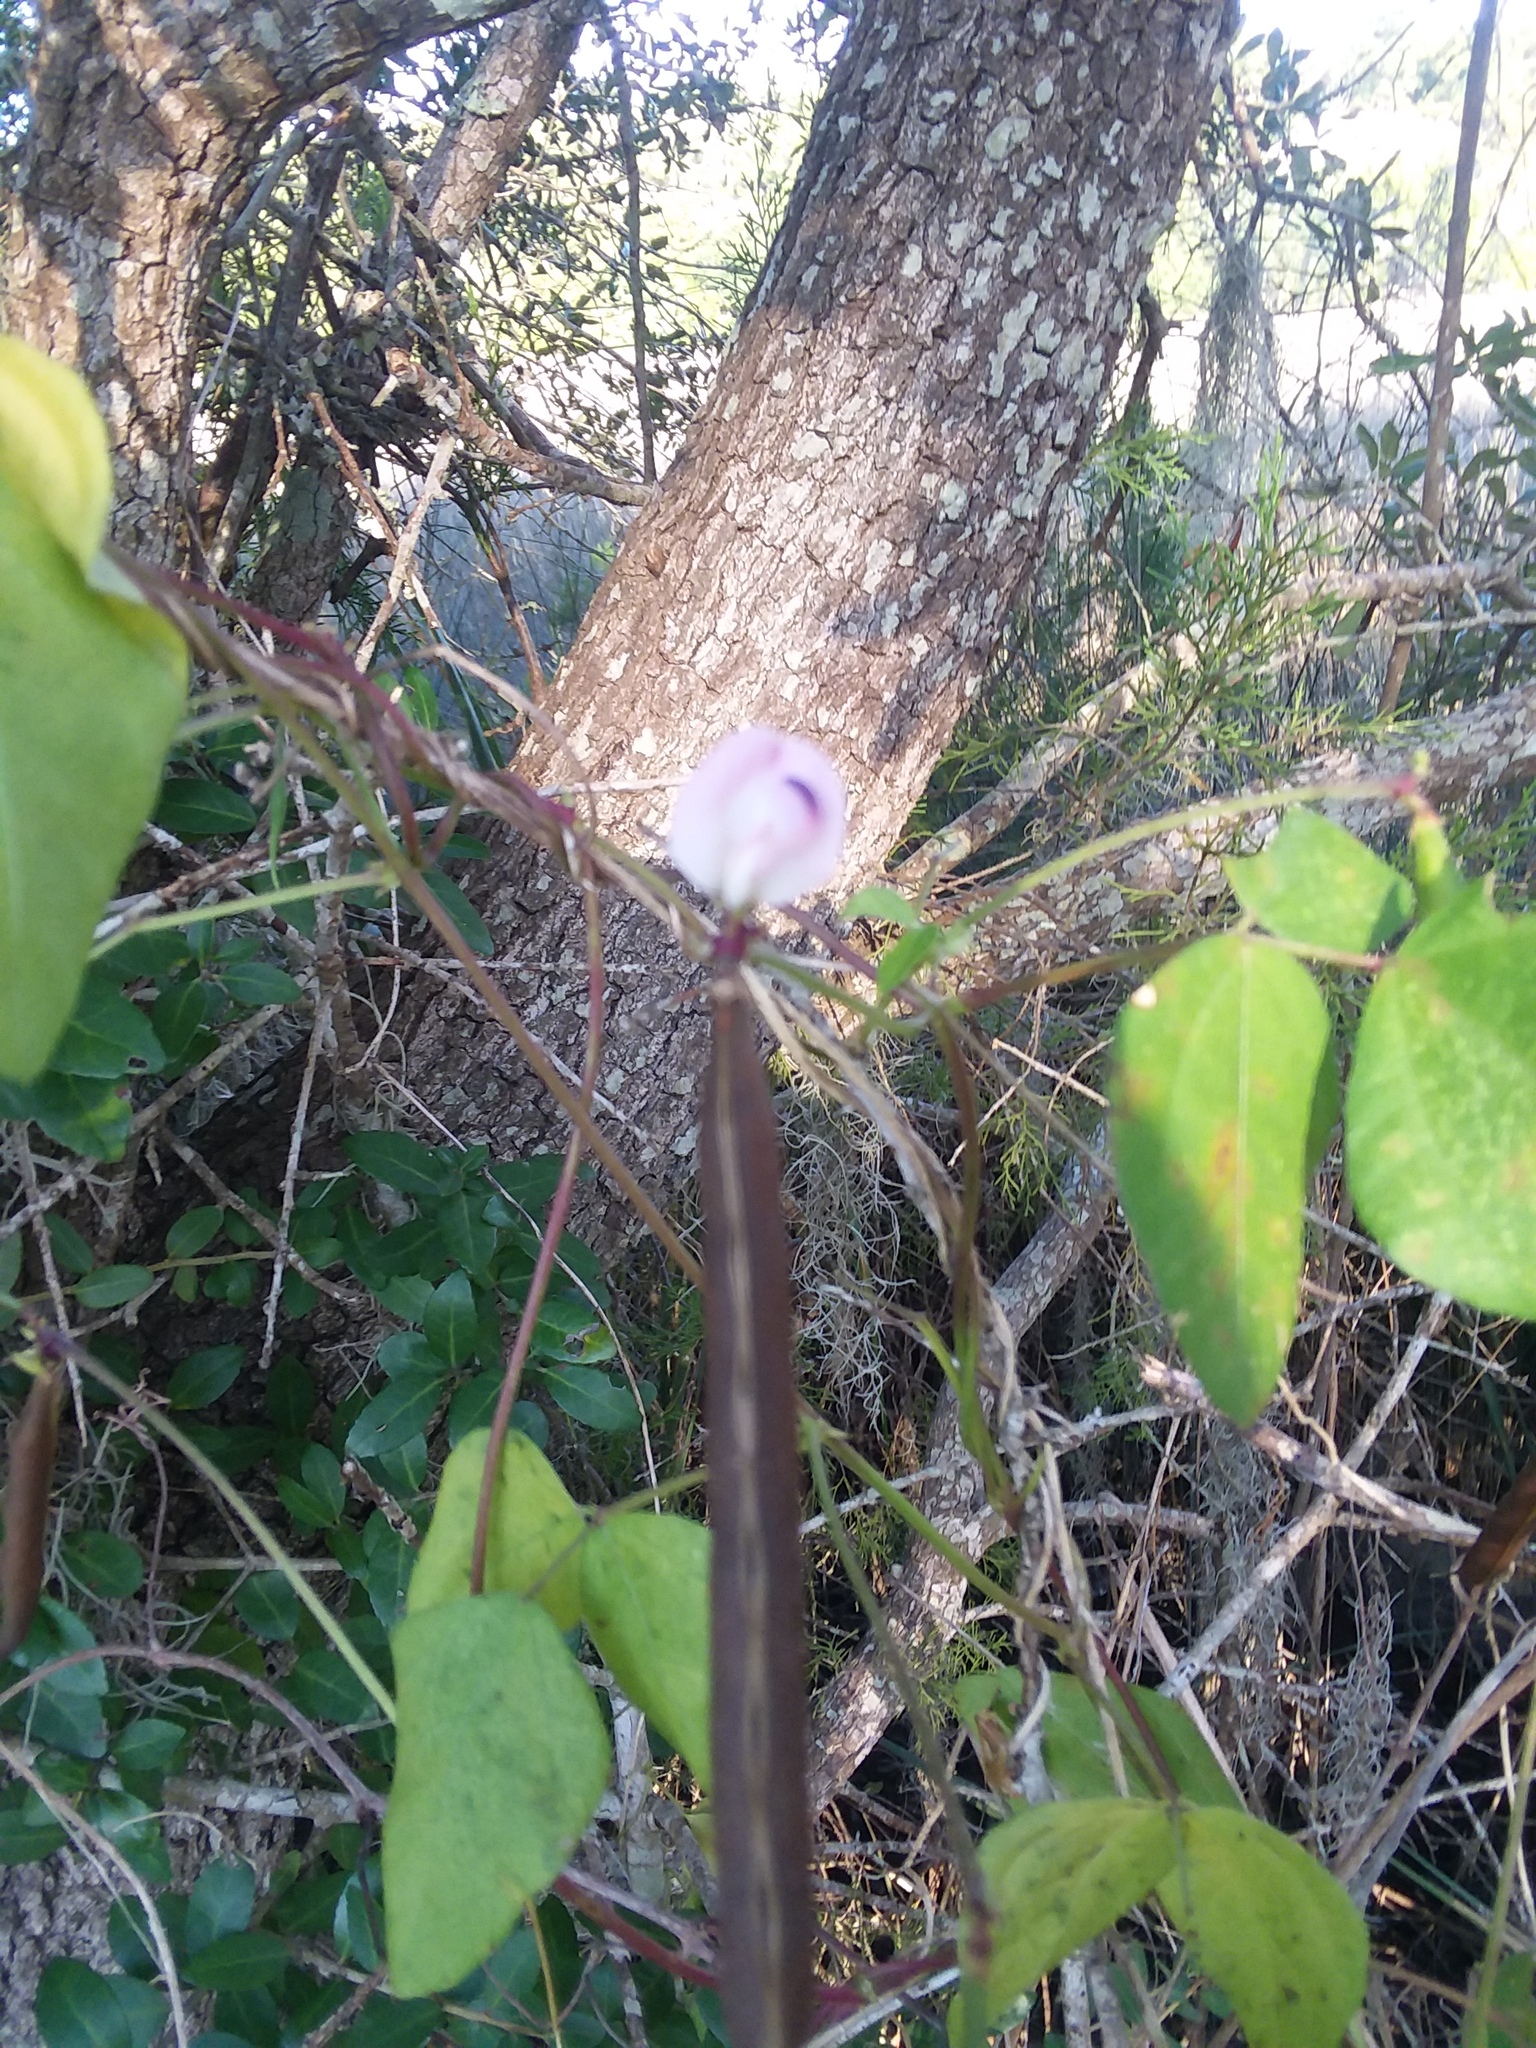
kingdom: Plantae
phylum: Tracheophyta
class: Magnoliopsida
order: Fabales
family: Fabaceae
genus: Strophostyles
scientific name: Strophostyles helvola
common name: Trailing wild bean
